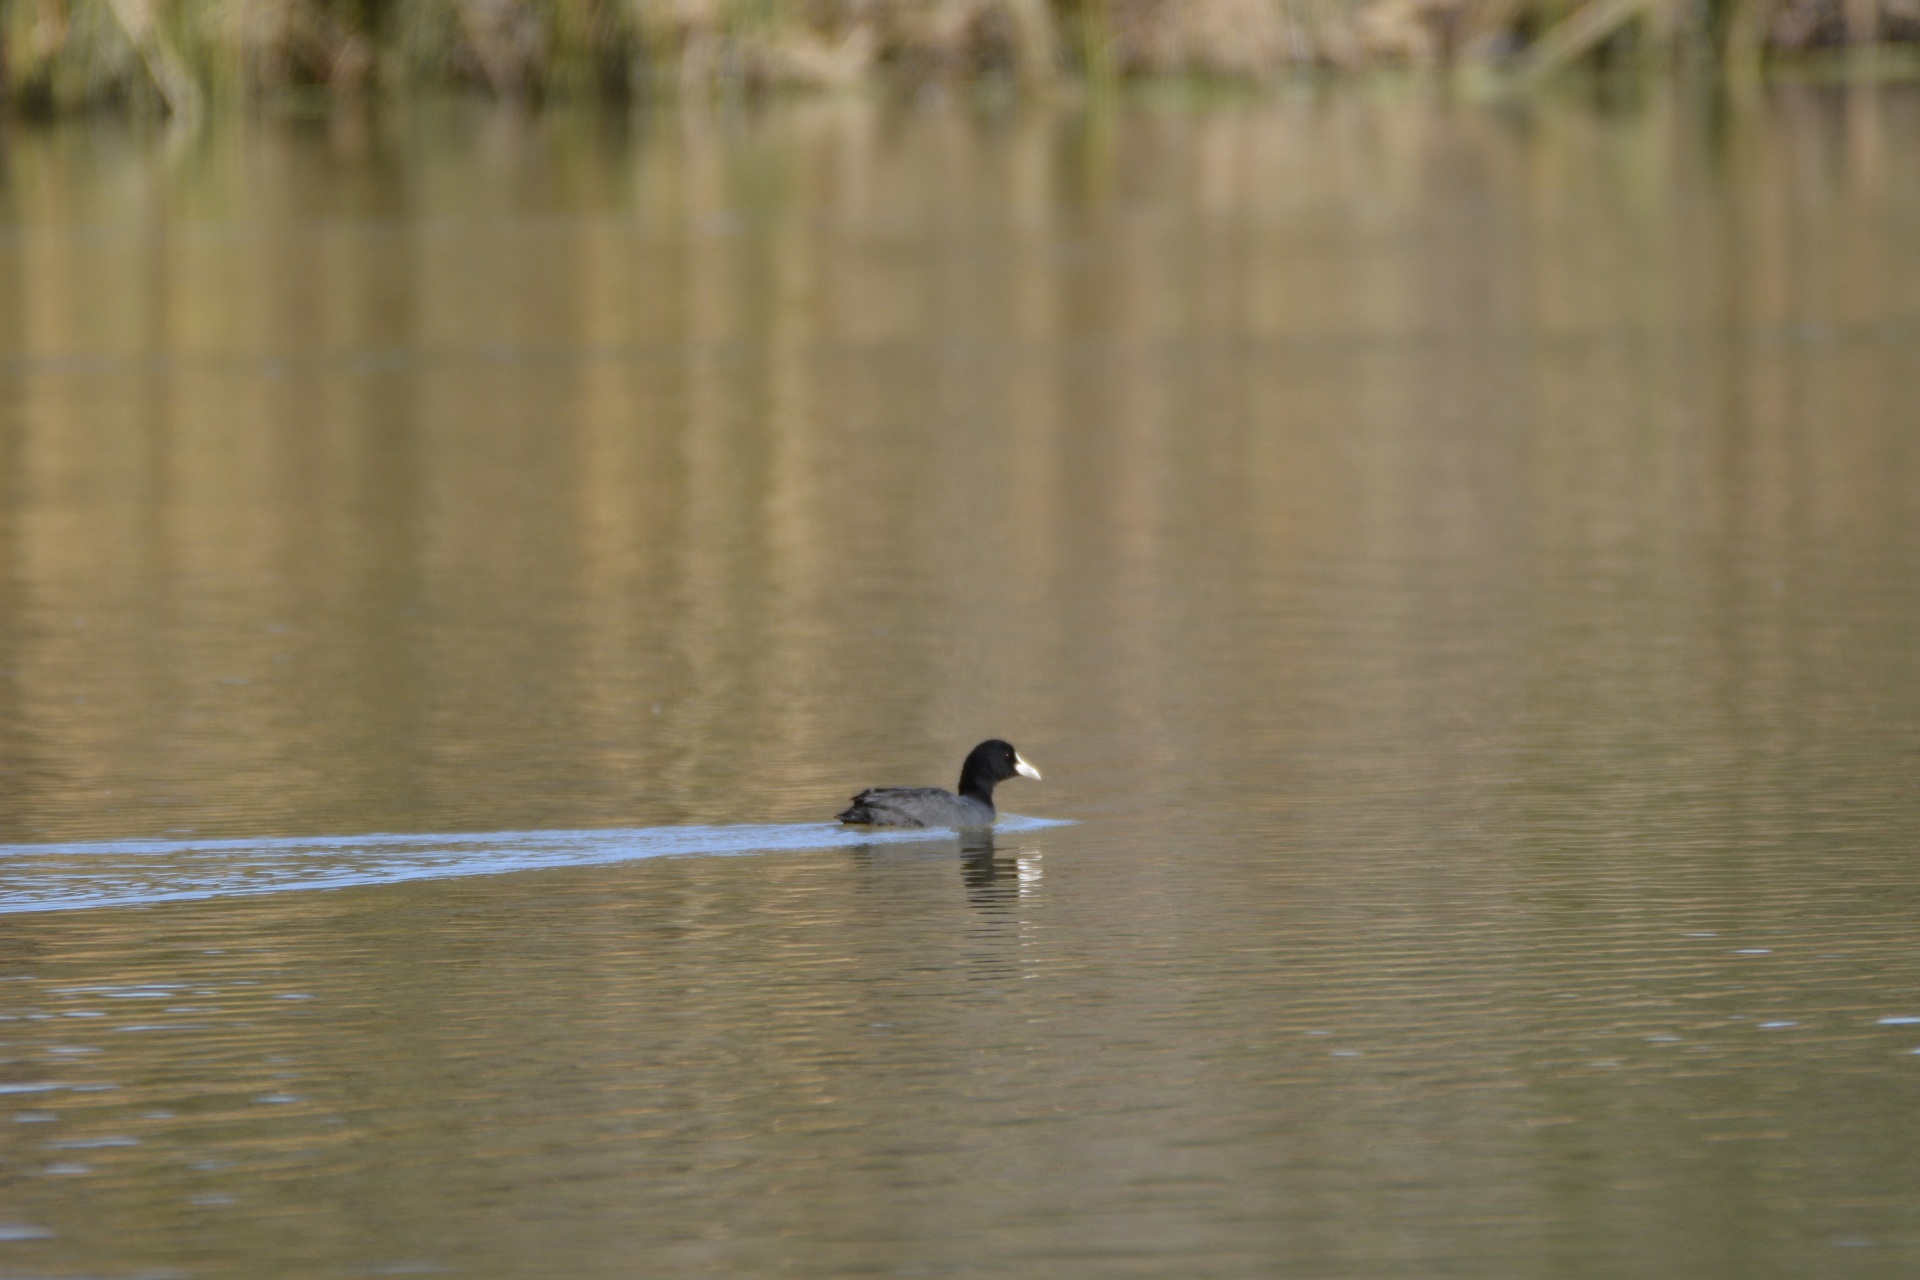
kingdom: Animalia
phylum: Chordata
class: Aves
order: Gruiformes
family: Rallidae
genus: Fulica
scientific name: Fulica atra
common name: Eurasian coot
